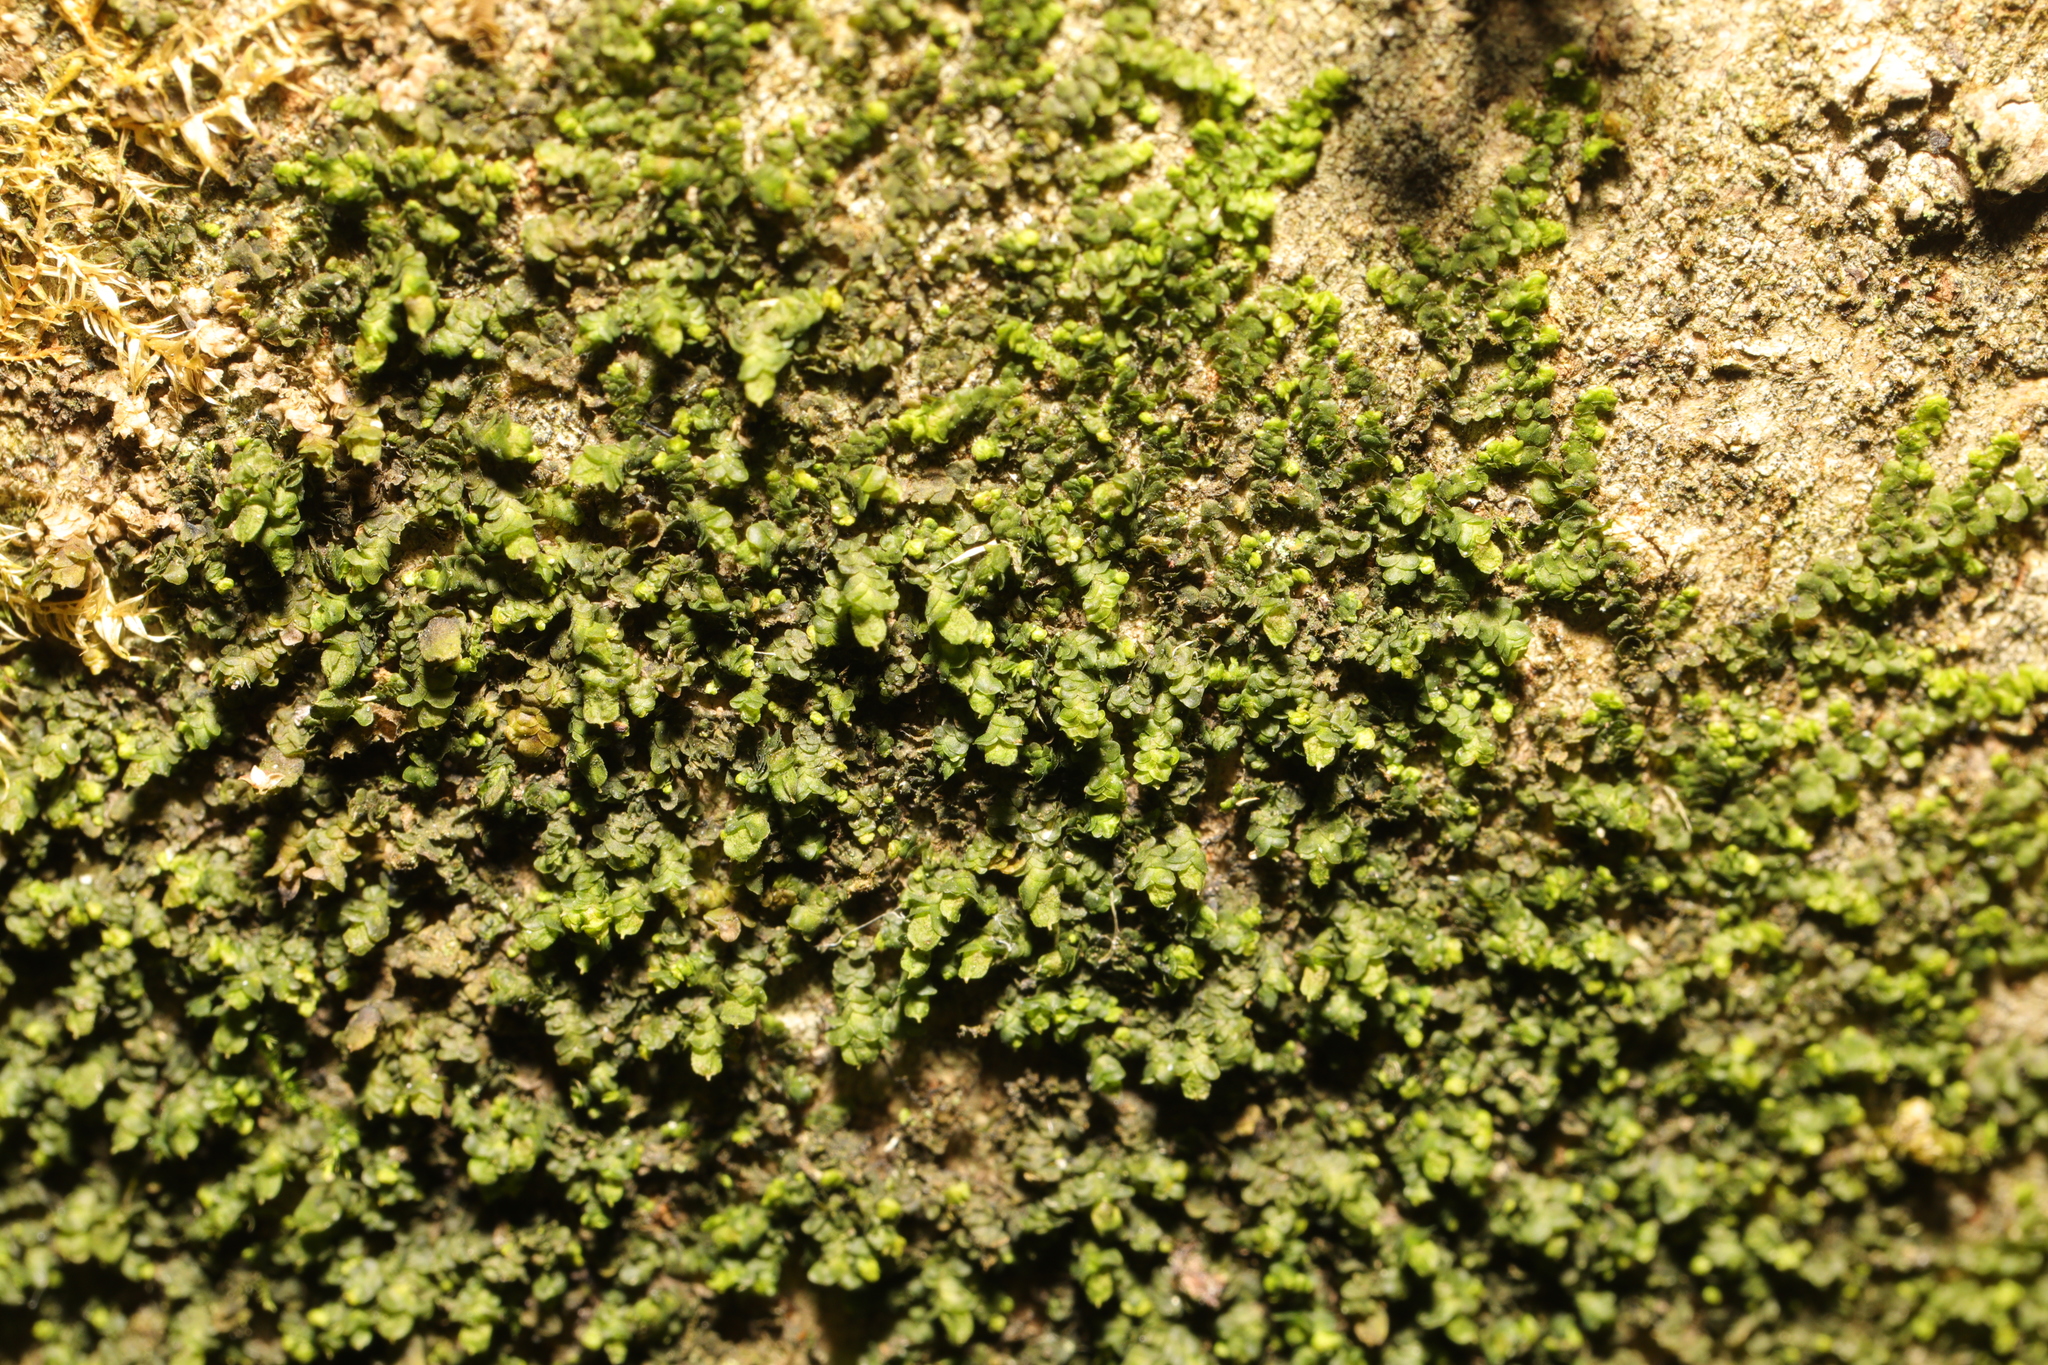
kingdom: Plantae
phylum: Marchantiophyta
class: Jungermanniopsida
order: Porellales
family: Radulaceae
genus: Radula
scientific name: Radula complanata
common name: Flat-leaved scalewort
